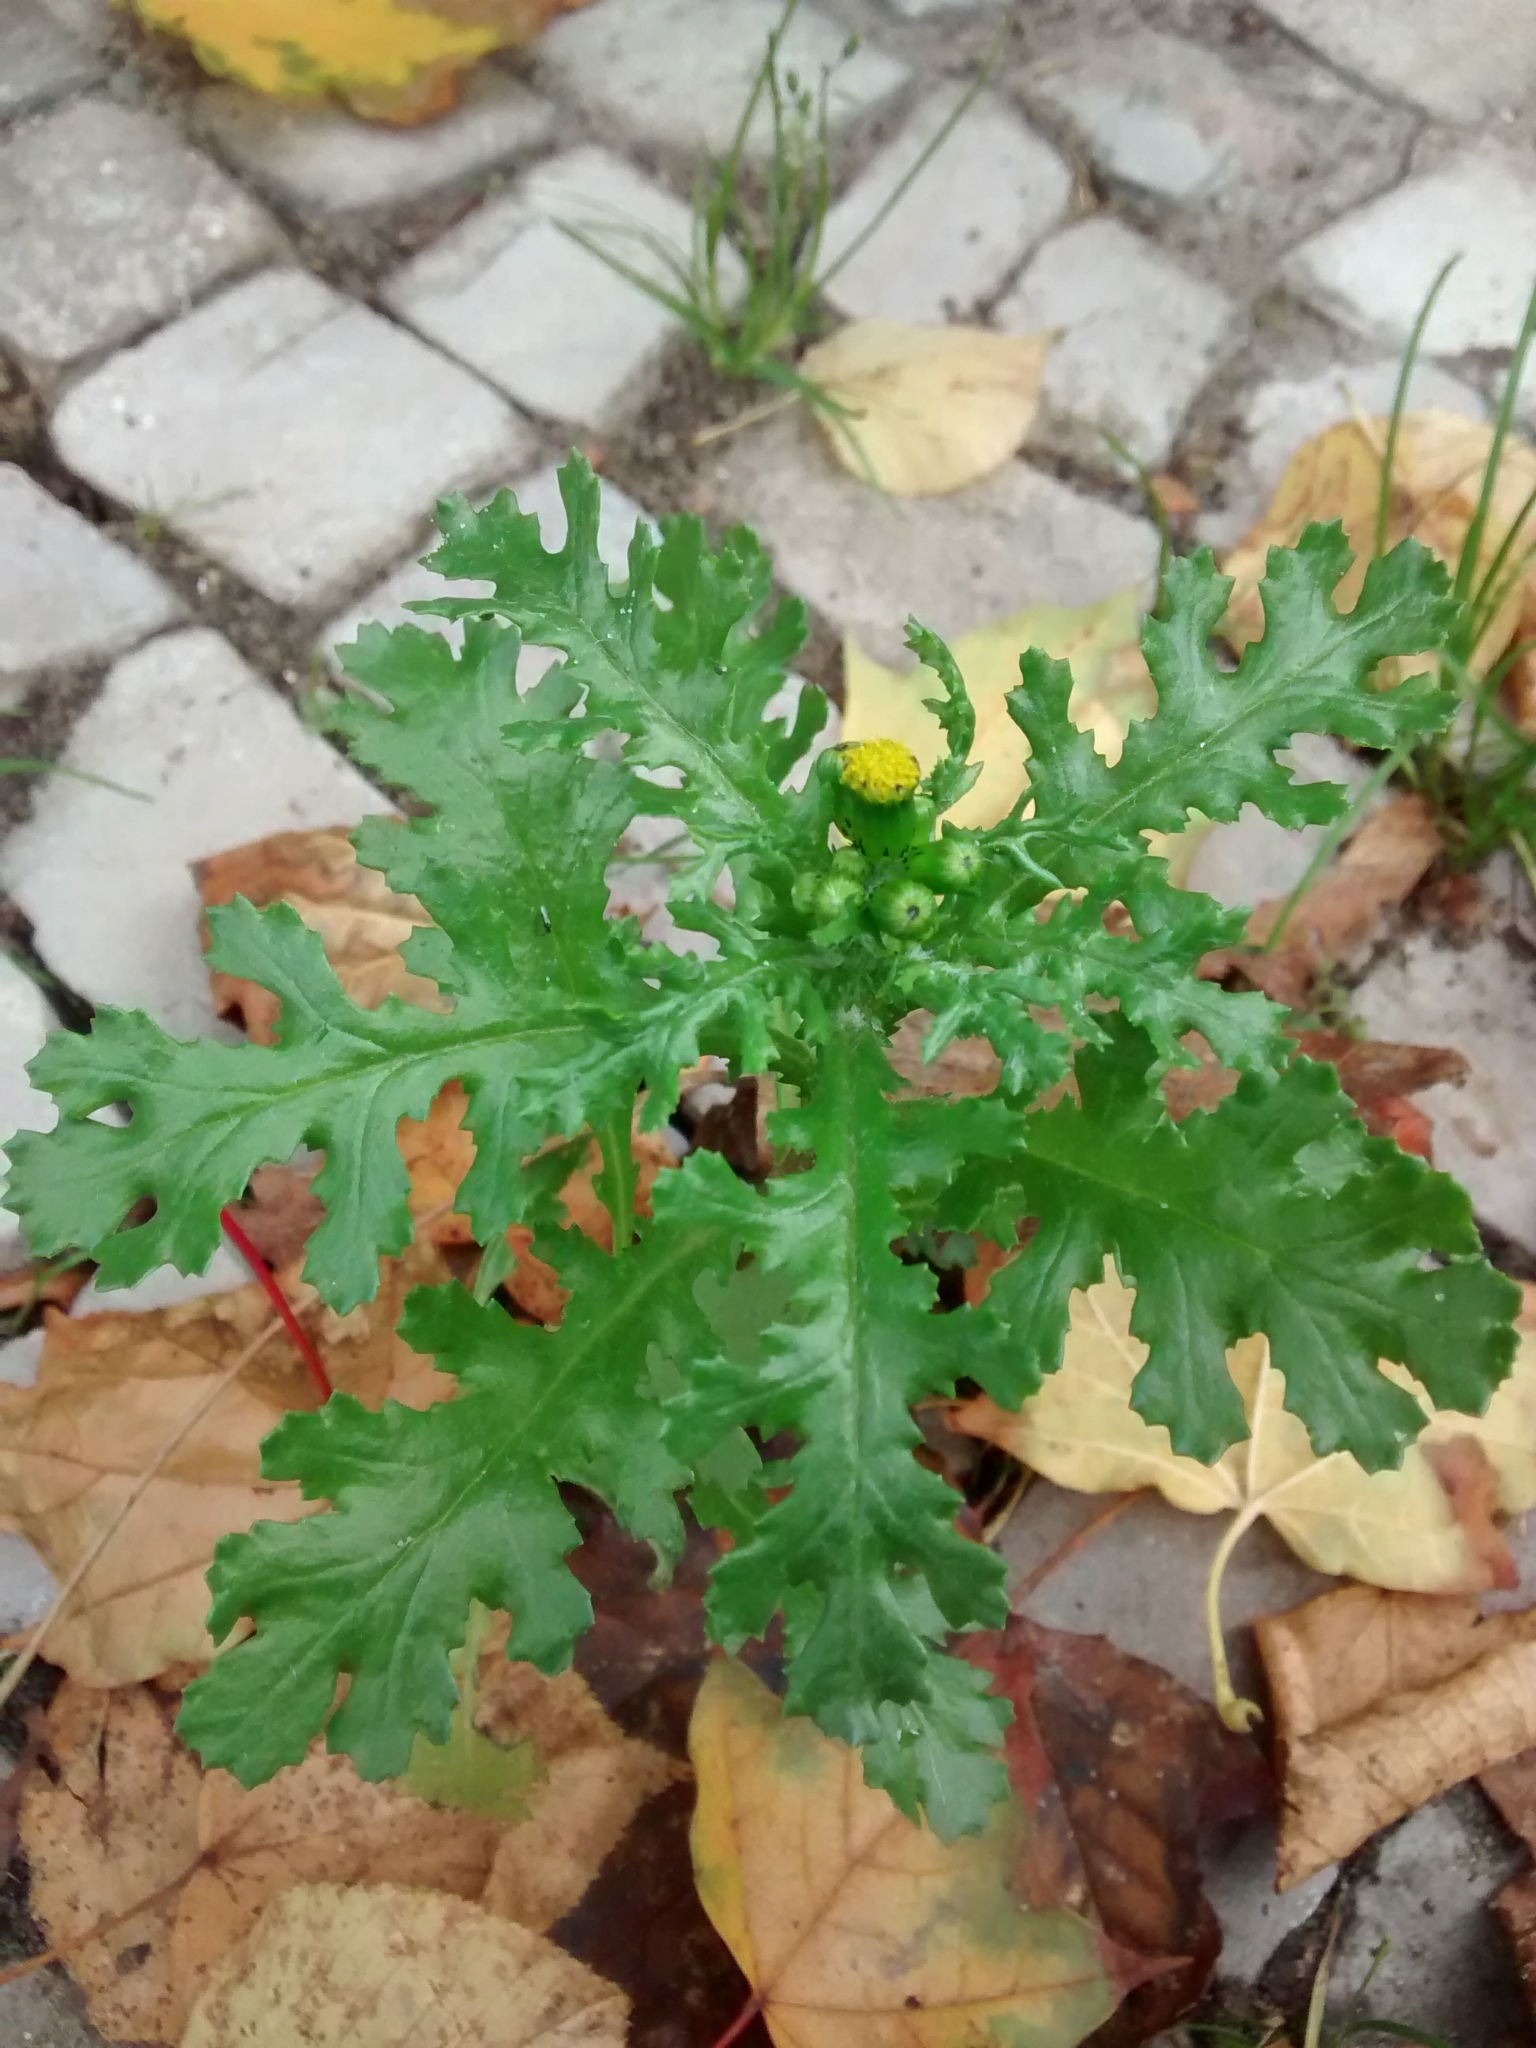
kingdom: Plantae
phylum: Tracheophyta
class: Magnoliopsida
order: Asterales
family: Asteraceae
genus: Senecio
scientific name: Senecio vulgaris
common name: Old-man-in-the-spring
